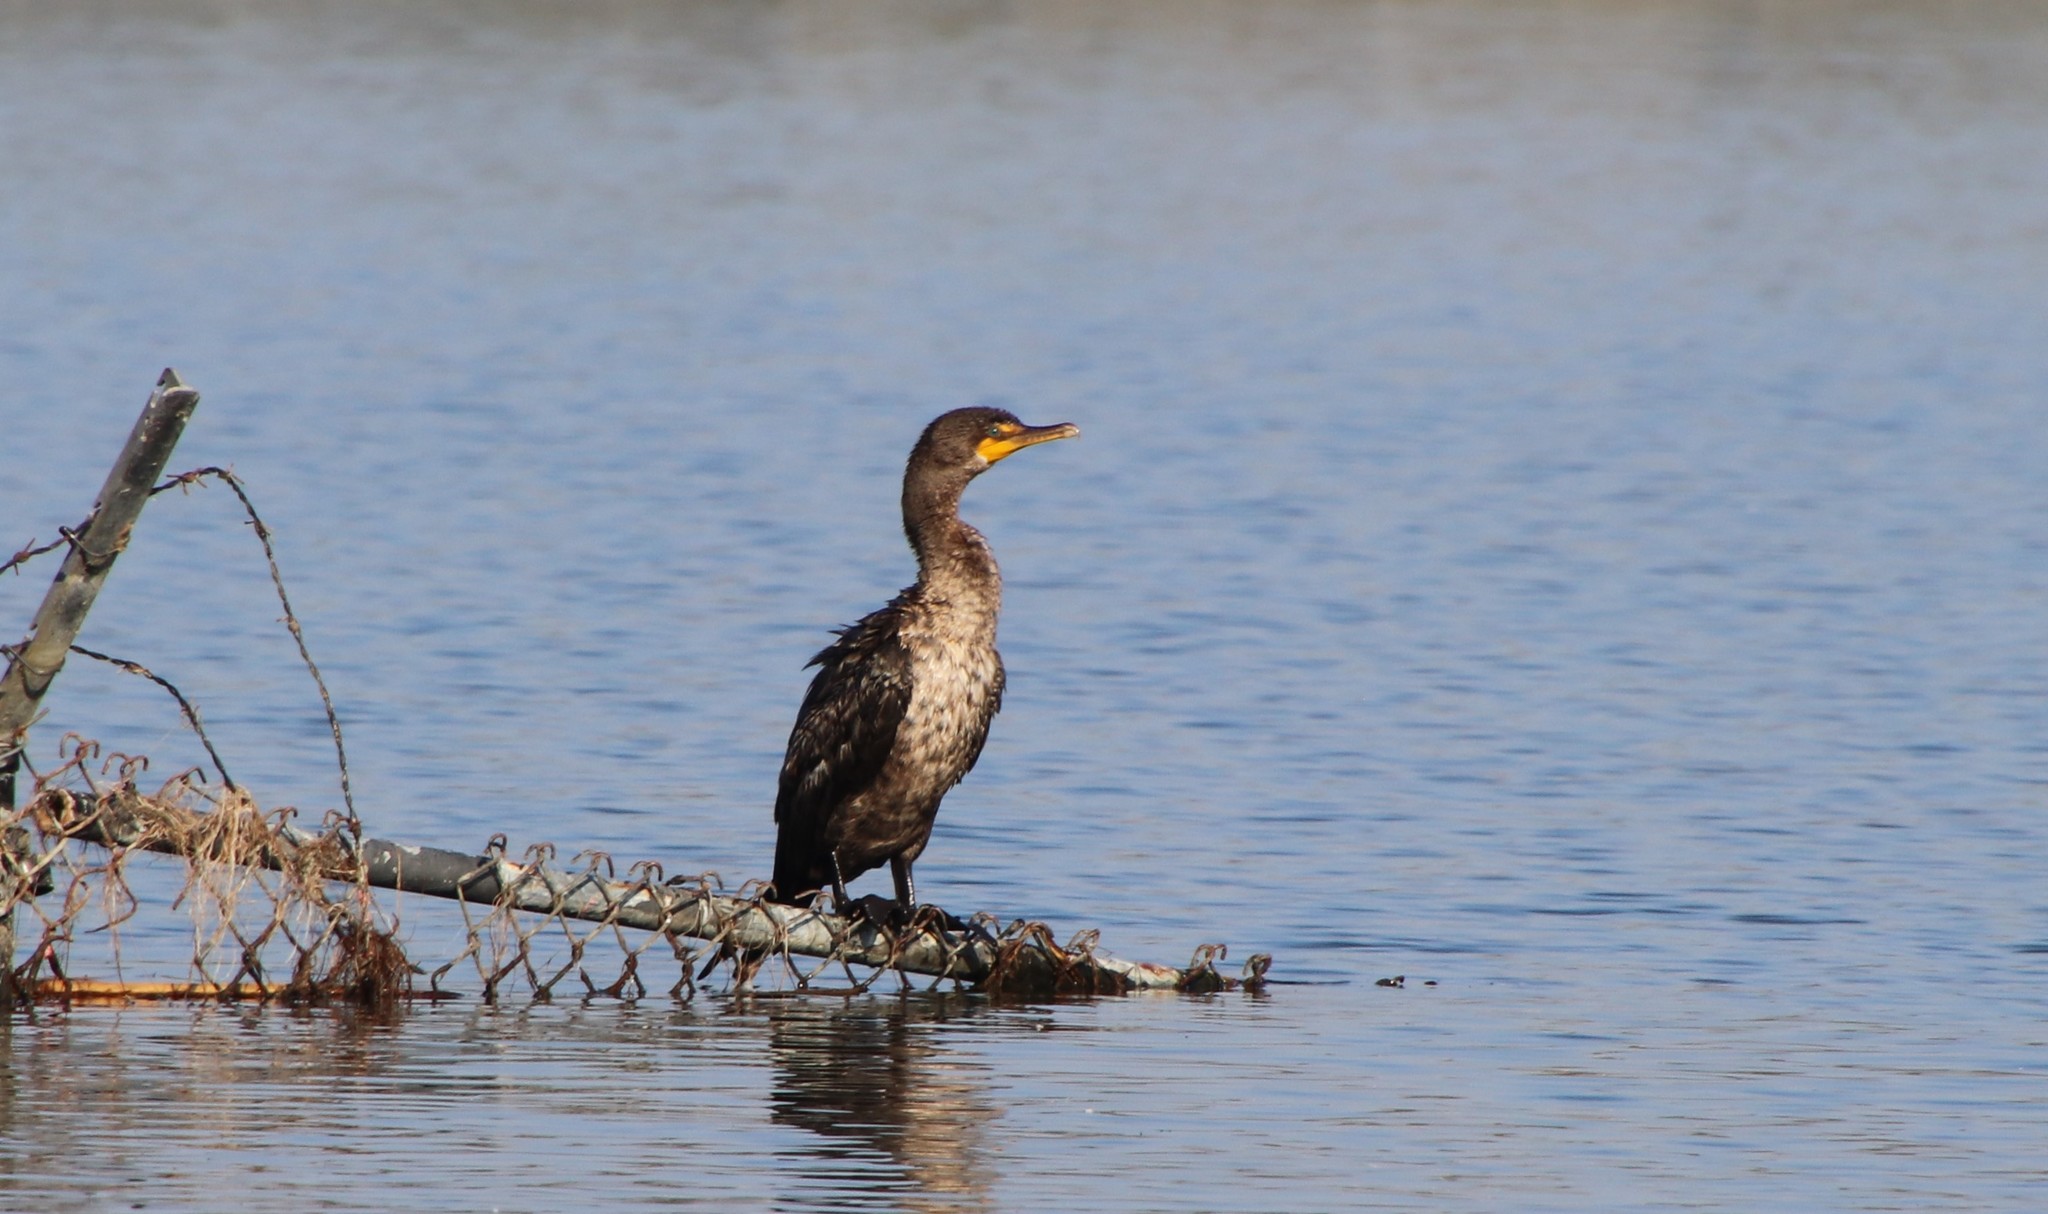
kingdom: Animalia
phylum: Chordata
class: Aves
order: Suliformes
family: Phalacrocoracidae
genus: Phalacrocorax
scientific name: Phalacrocorax auritus
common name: Double-crested cormorant
